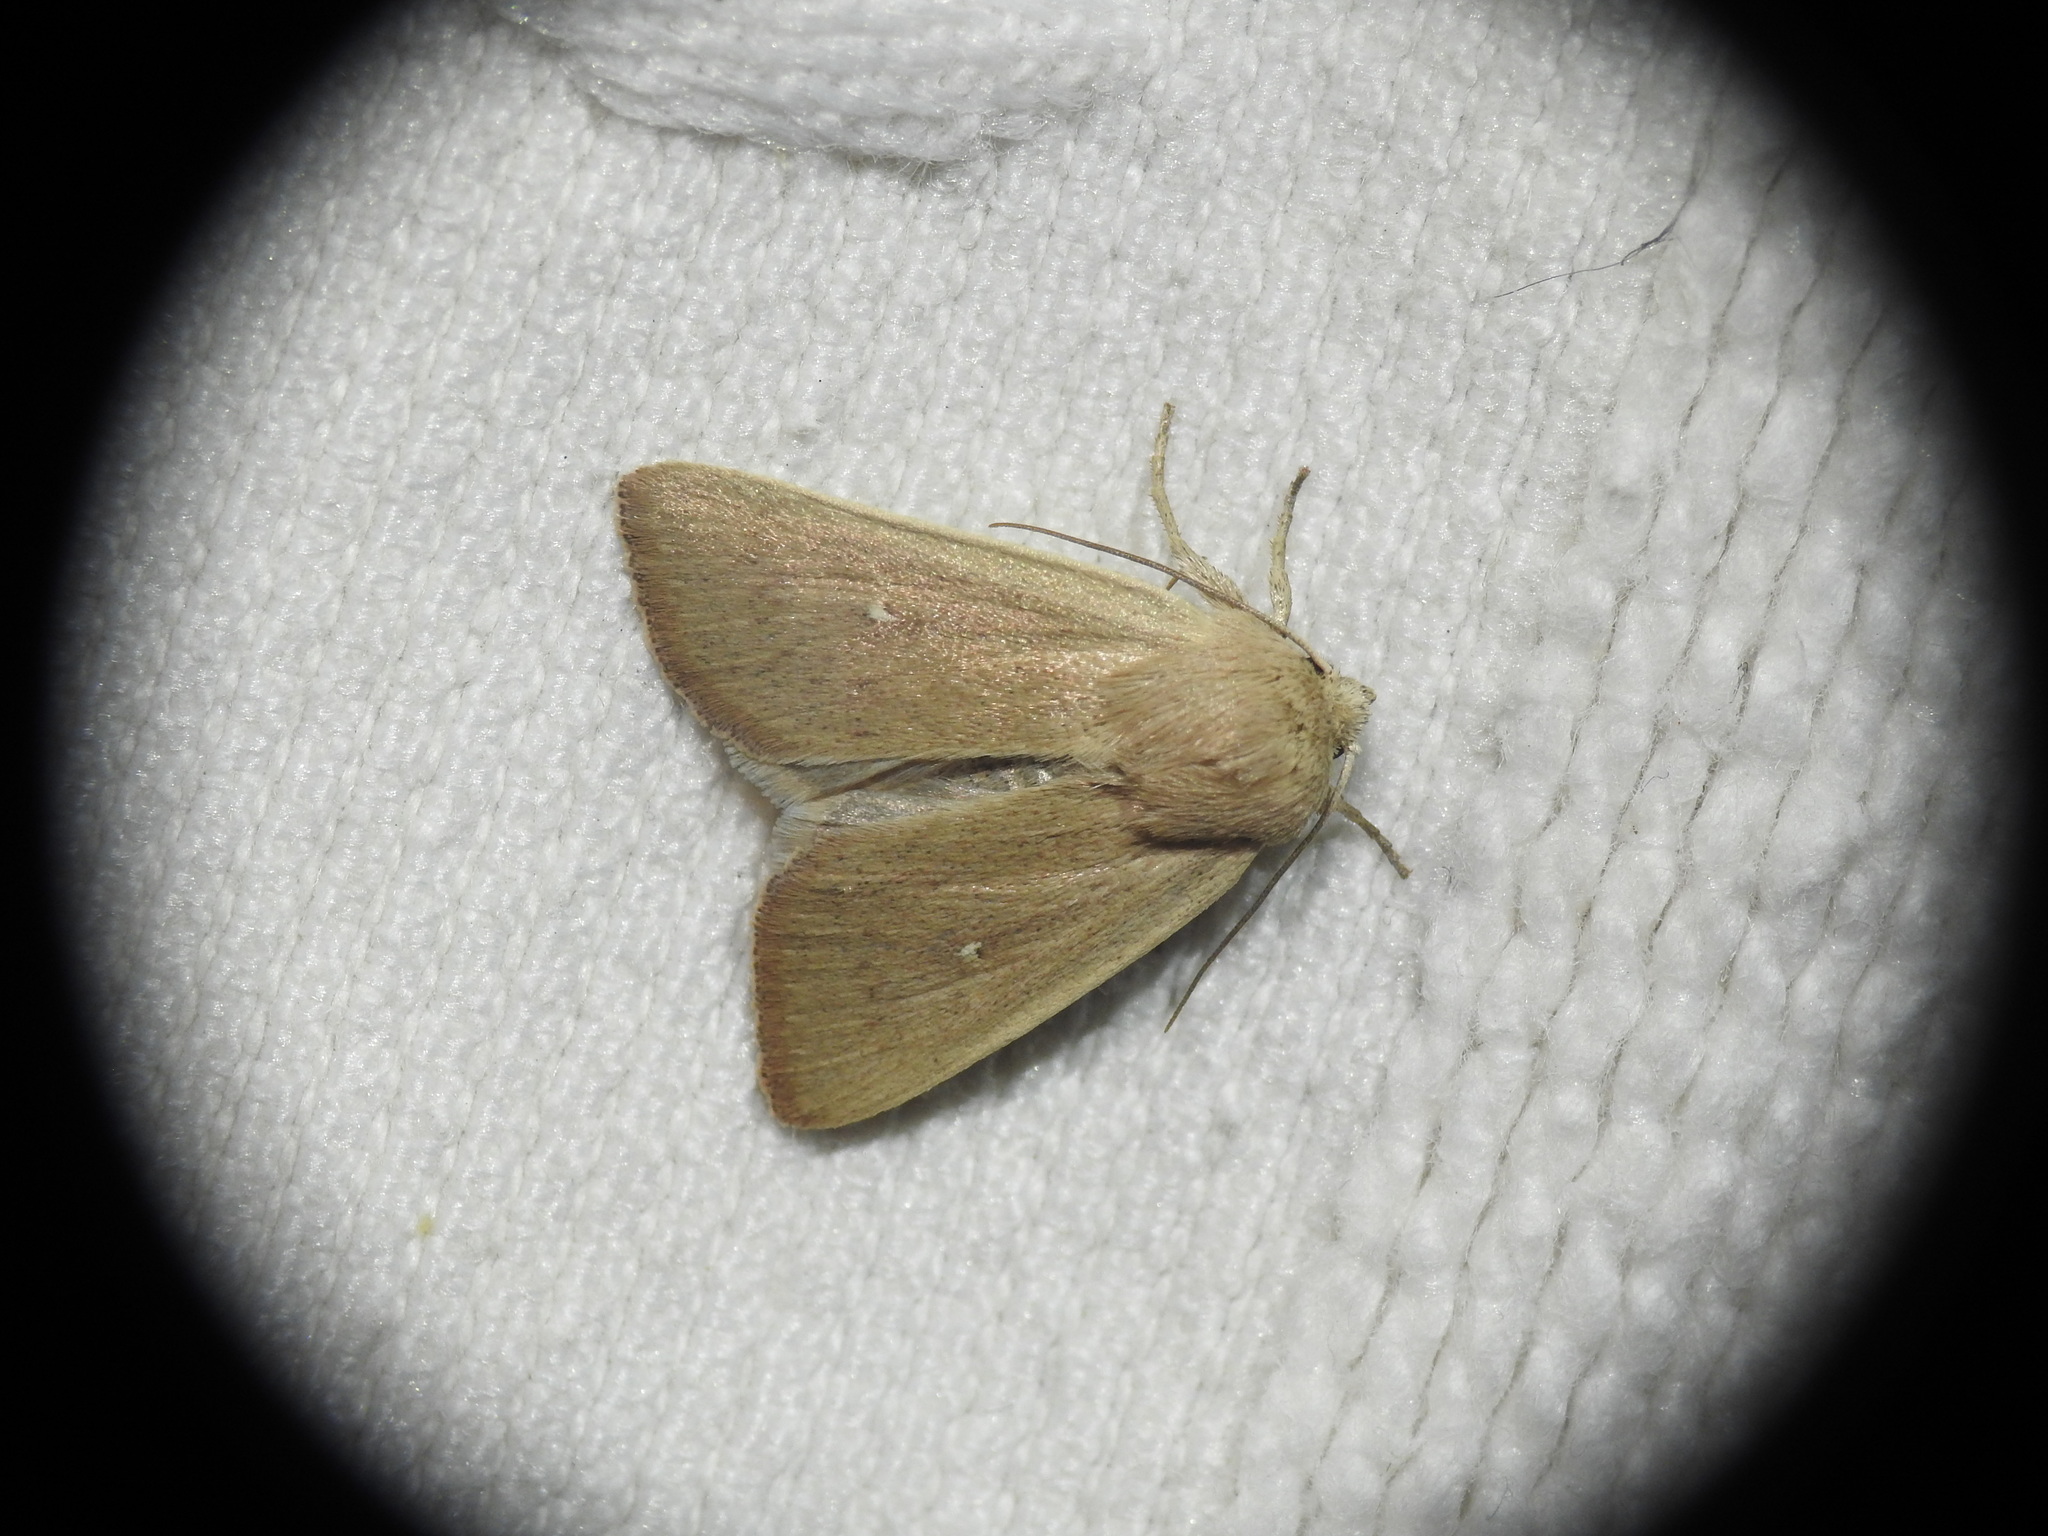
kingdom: Animalia
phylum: Arthropoda
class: Insecta
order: Lepidoptera
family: Noctuidae
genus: Mythimna
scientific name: Mythimna sicula
